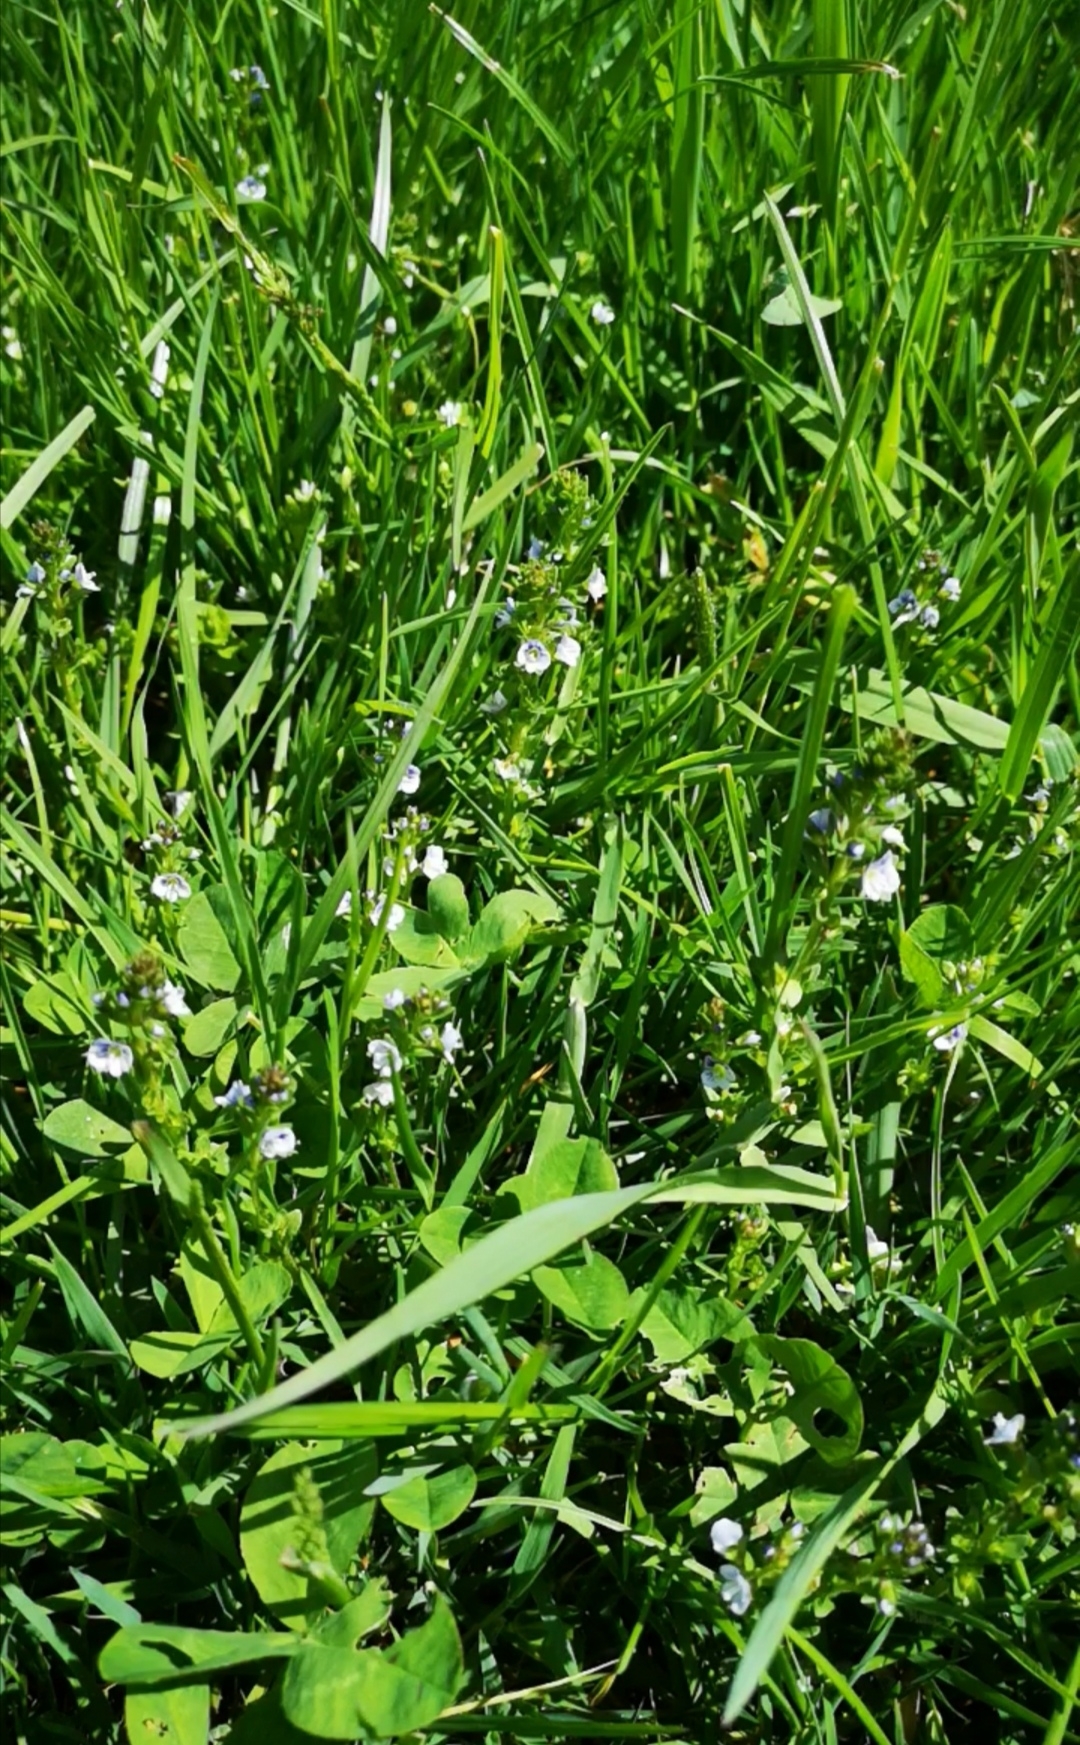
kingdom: Plantae
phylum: Tracheophyta
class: Magnoliopsida
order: Lamiales
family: Plantaginaceae
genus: Veronica
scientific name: Veronica serpyllifolia
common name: Thyme-leaved speedwell
